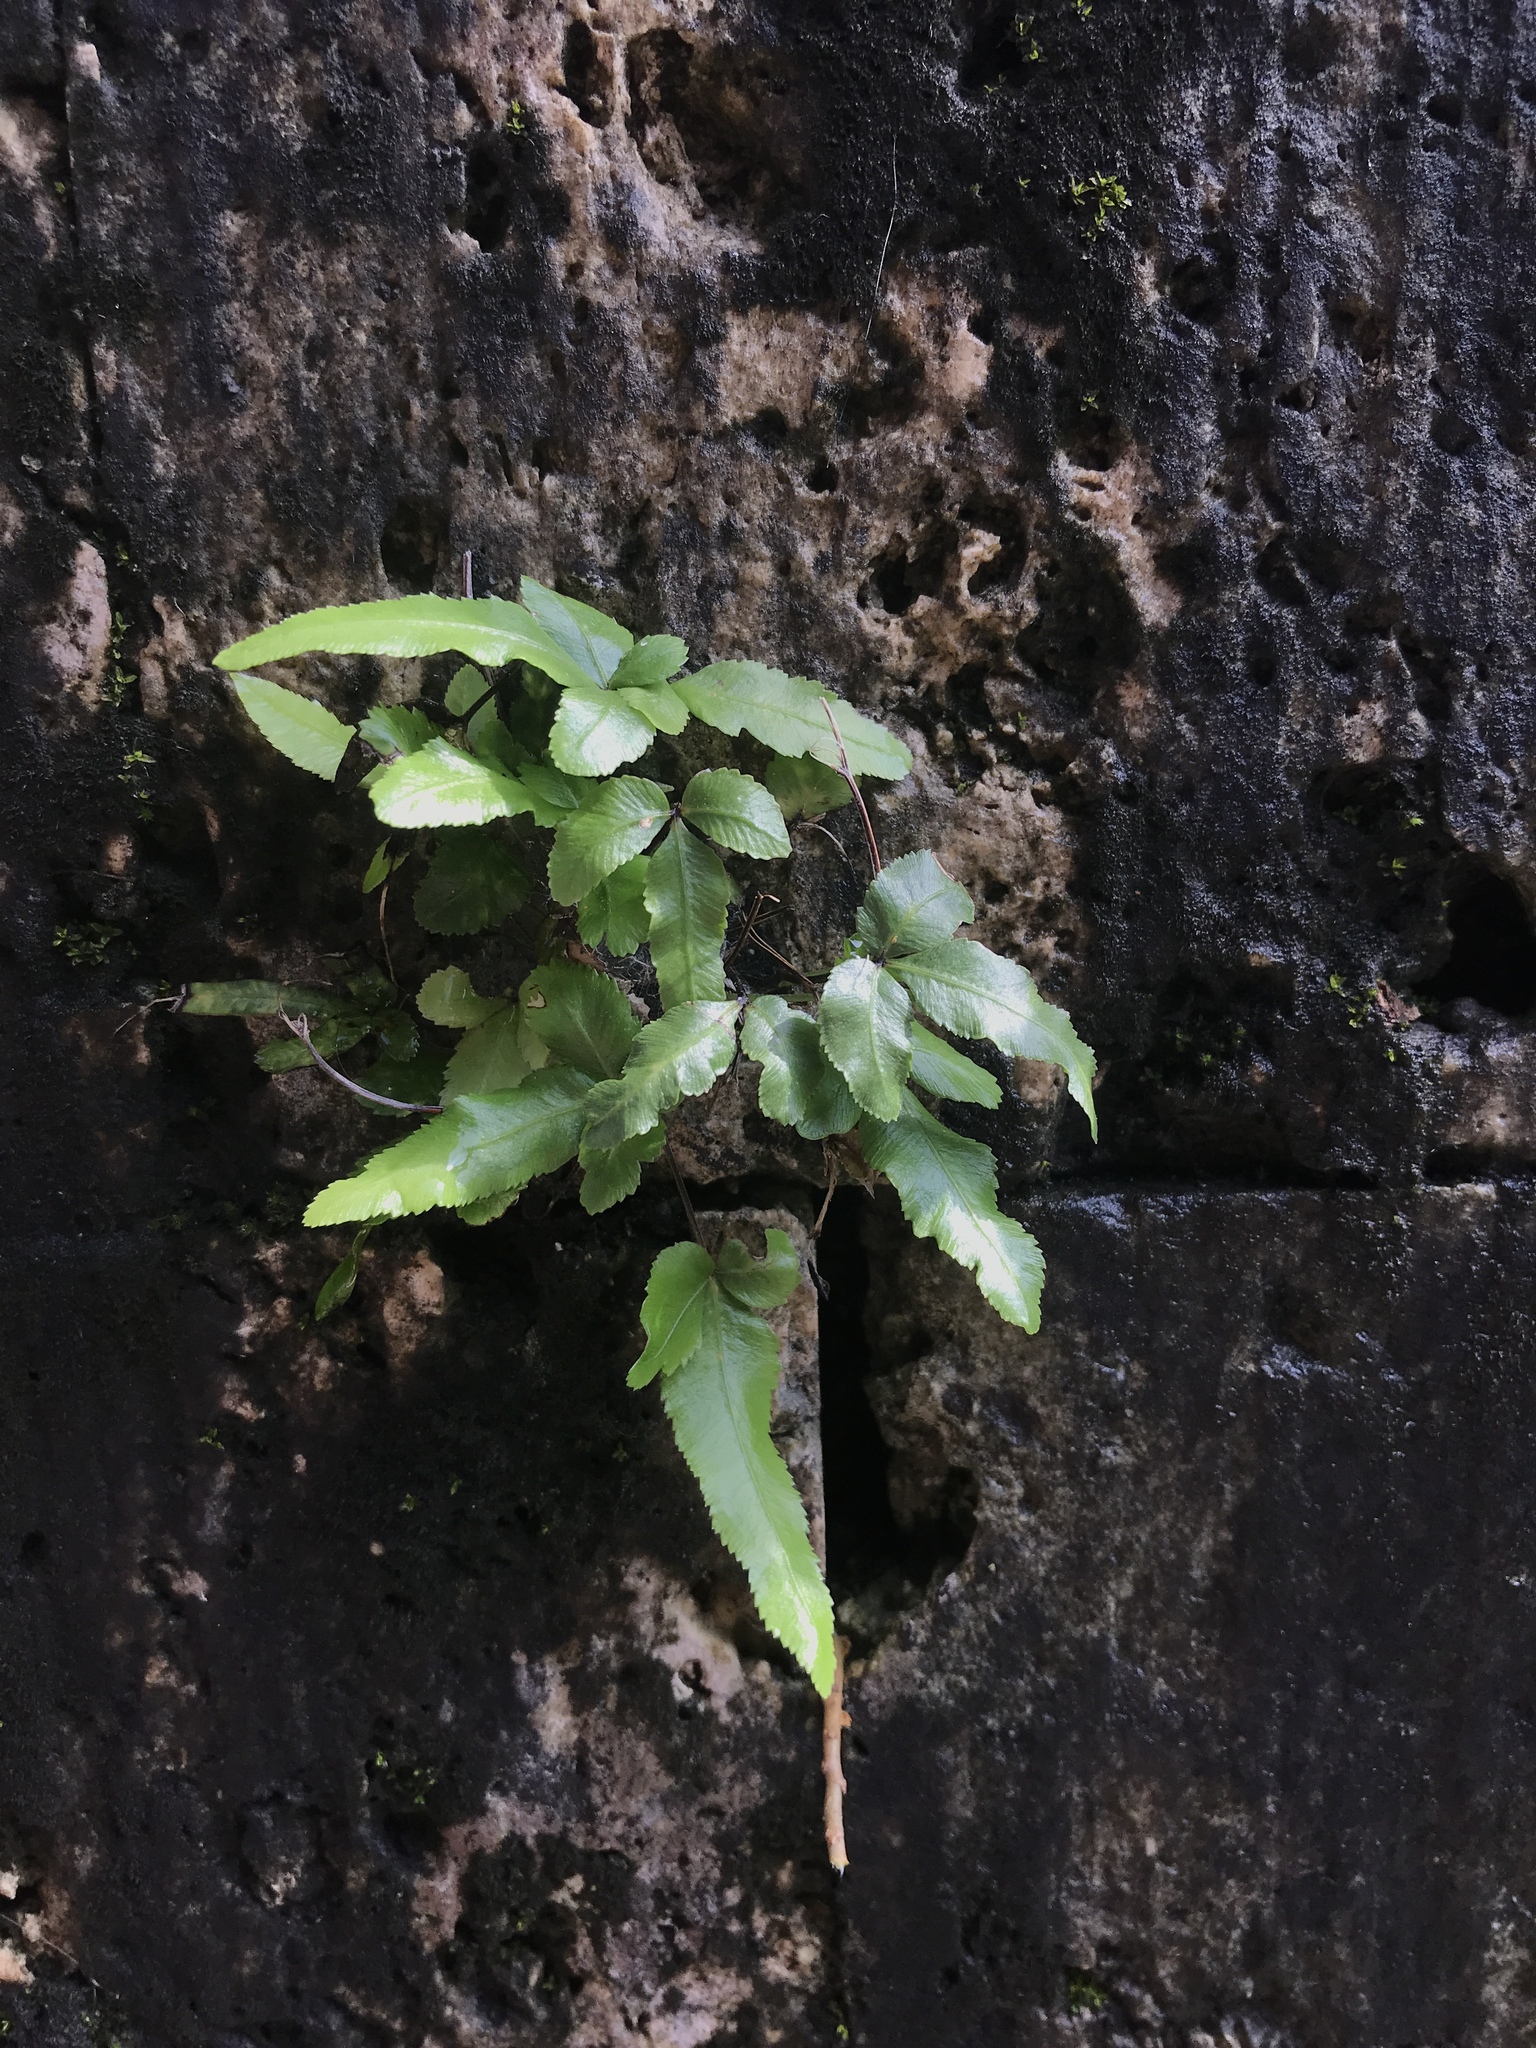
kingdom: Plantae
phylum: Tracheophyta
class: Polypodiopsida
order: Polypodiales
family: Pteridaceae
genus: Pteris
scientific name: Pteris ryukyuensis
